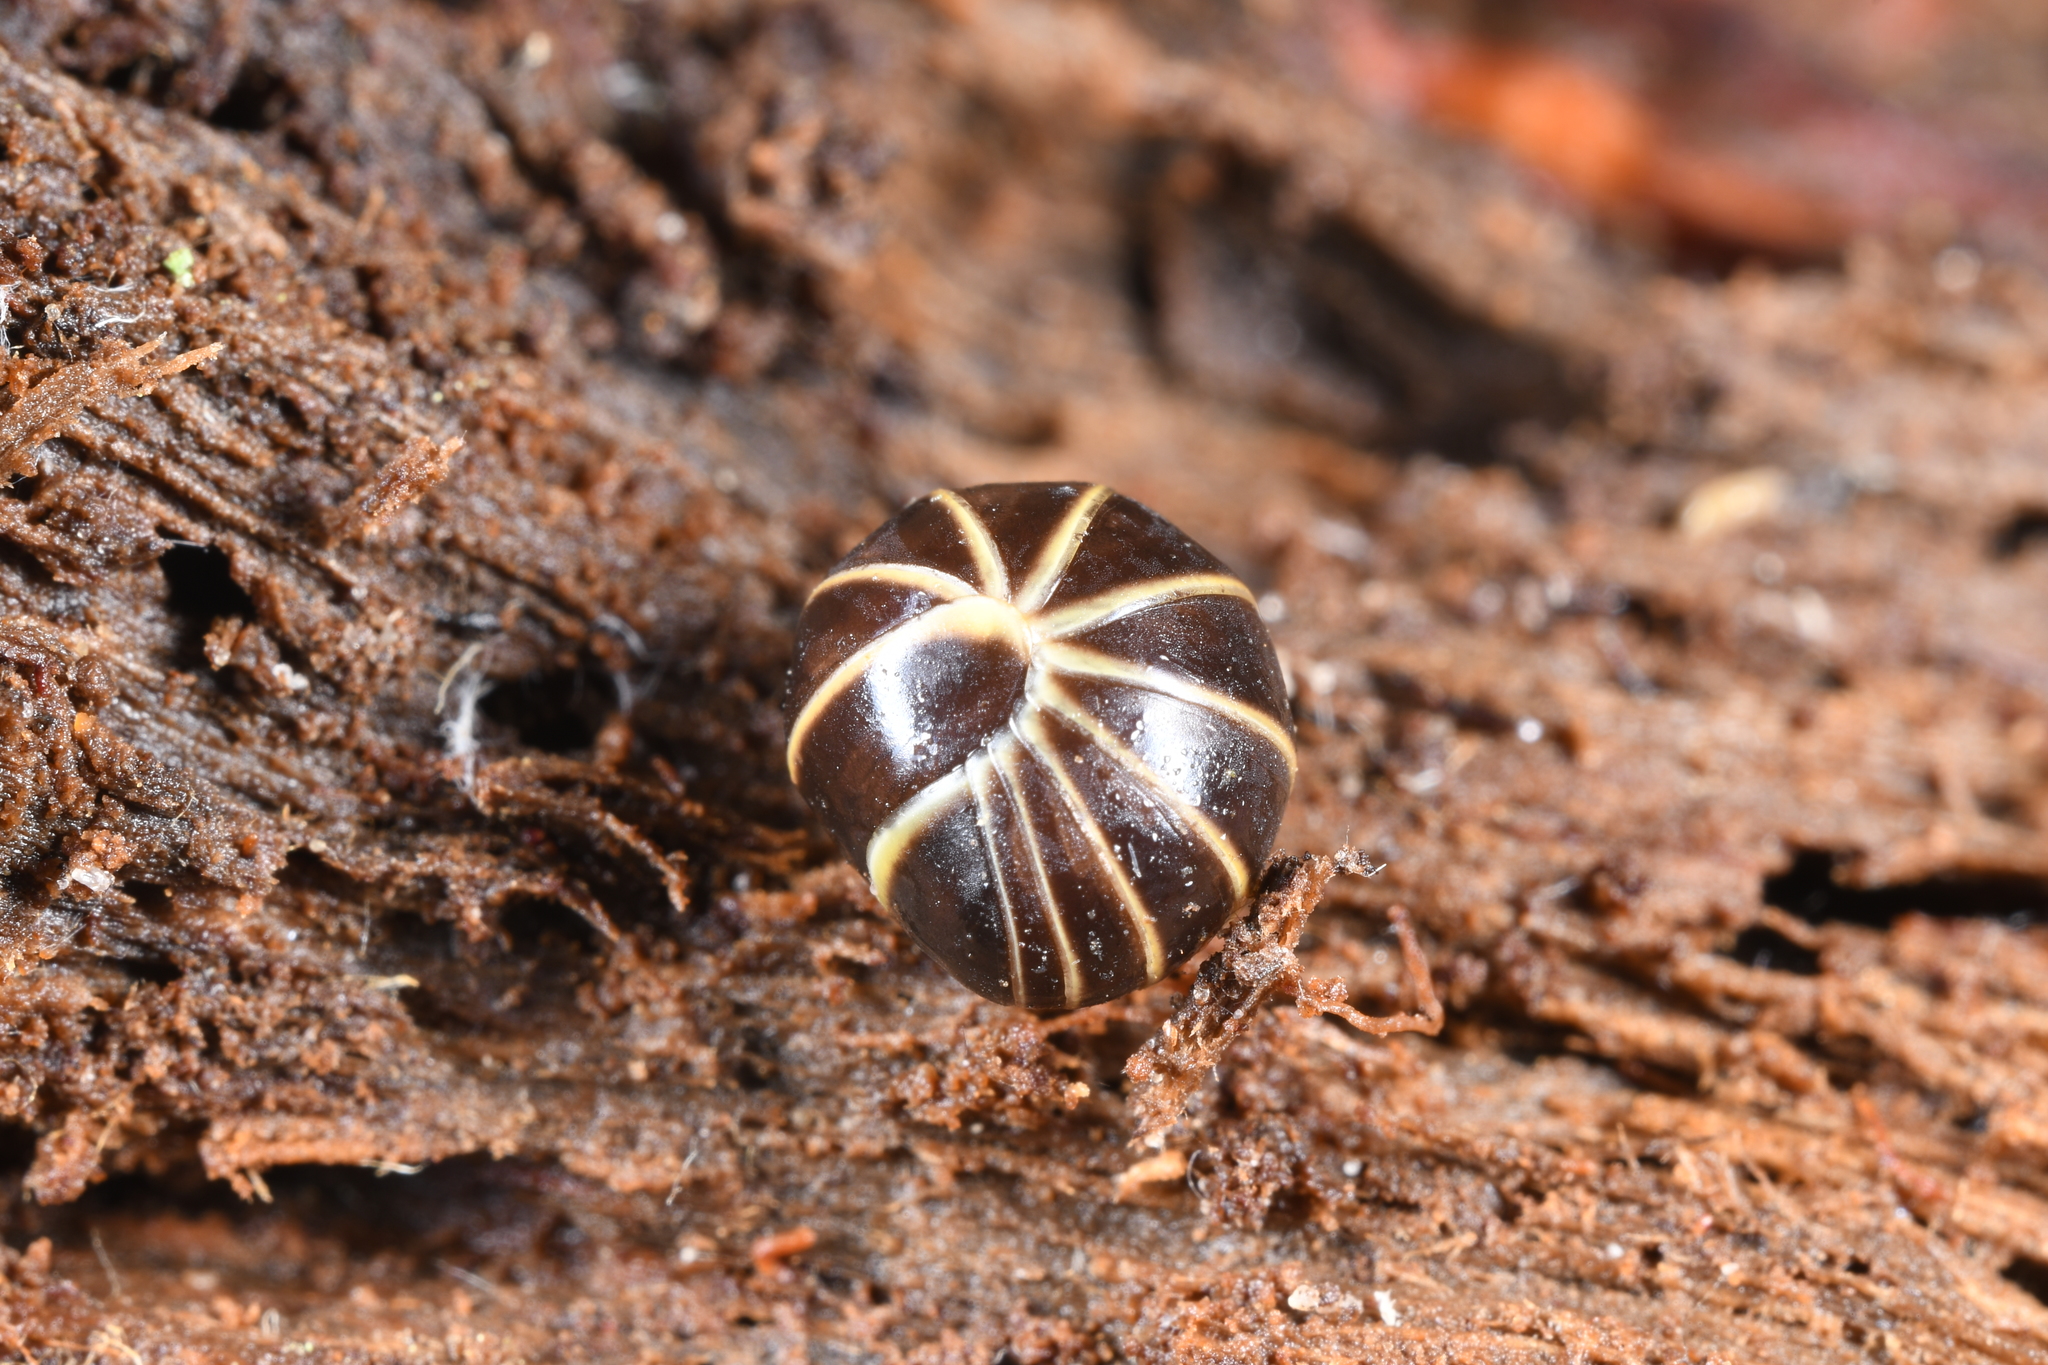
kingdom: Animalia
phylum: Arthropoda
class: Diplopoda
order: Glomerida
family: Glomeridae
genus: Glomeris
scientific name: Glomeris marginata
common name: Bordered pill millipede
